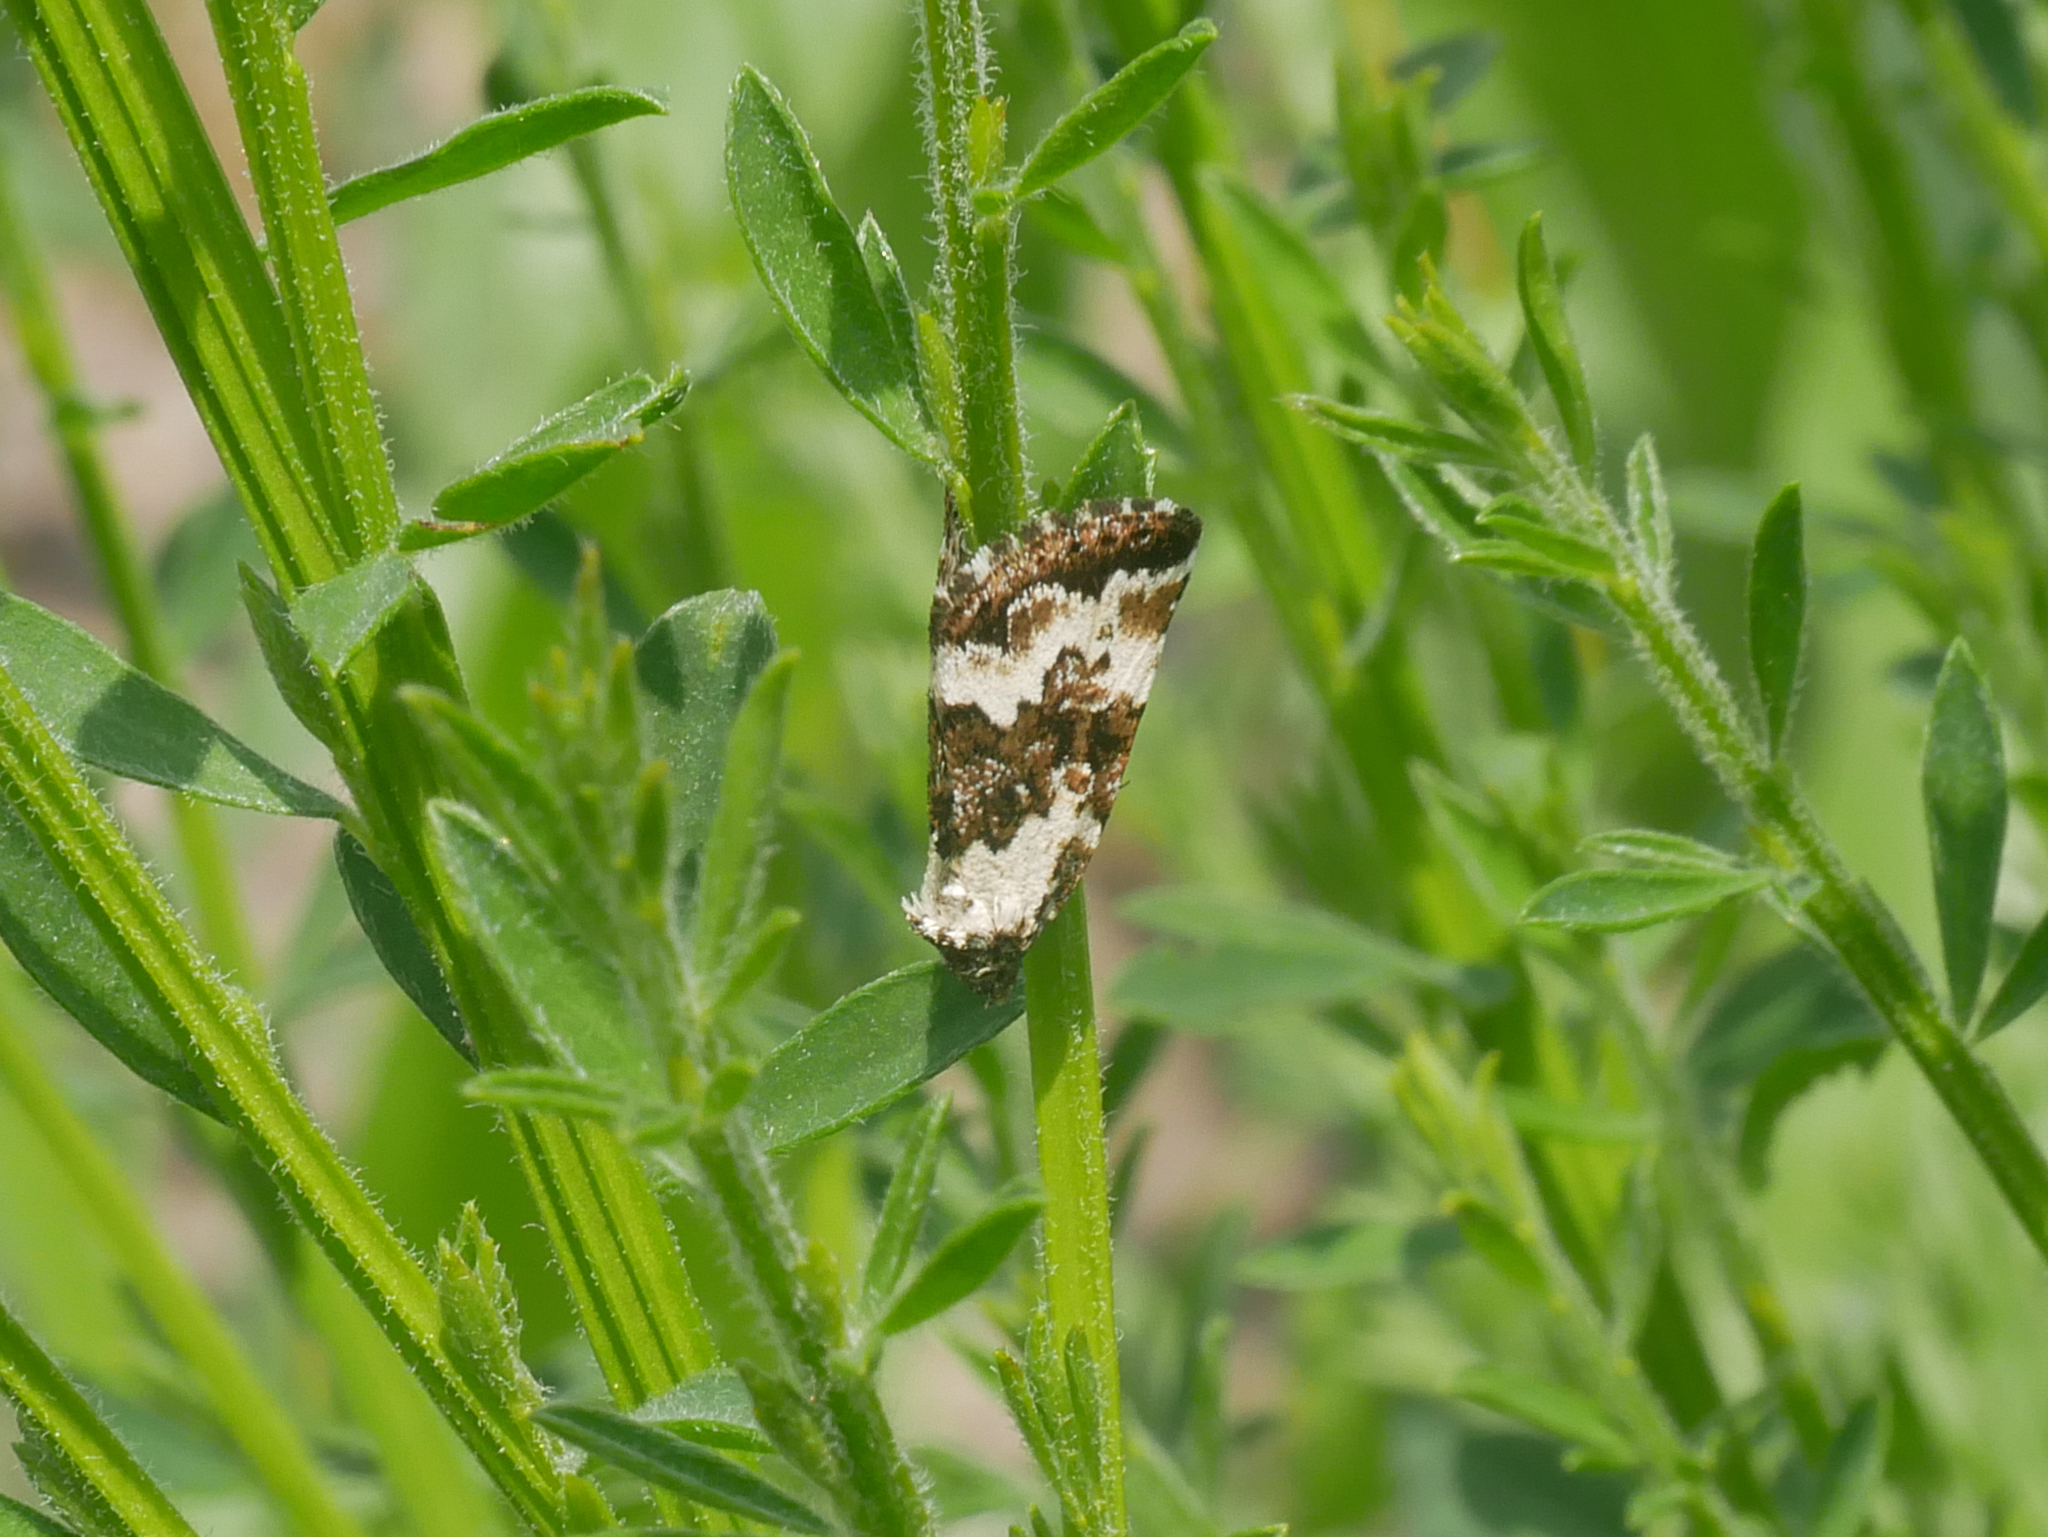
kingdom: Animalia
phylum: Arthropoda
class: Insecta
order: Lepidoptera
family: Noctuidae
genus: Deltote
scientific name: Deltote deceptoria
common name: Pretty marbled
